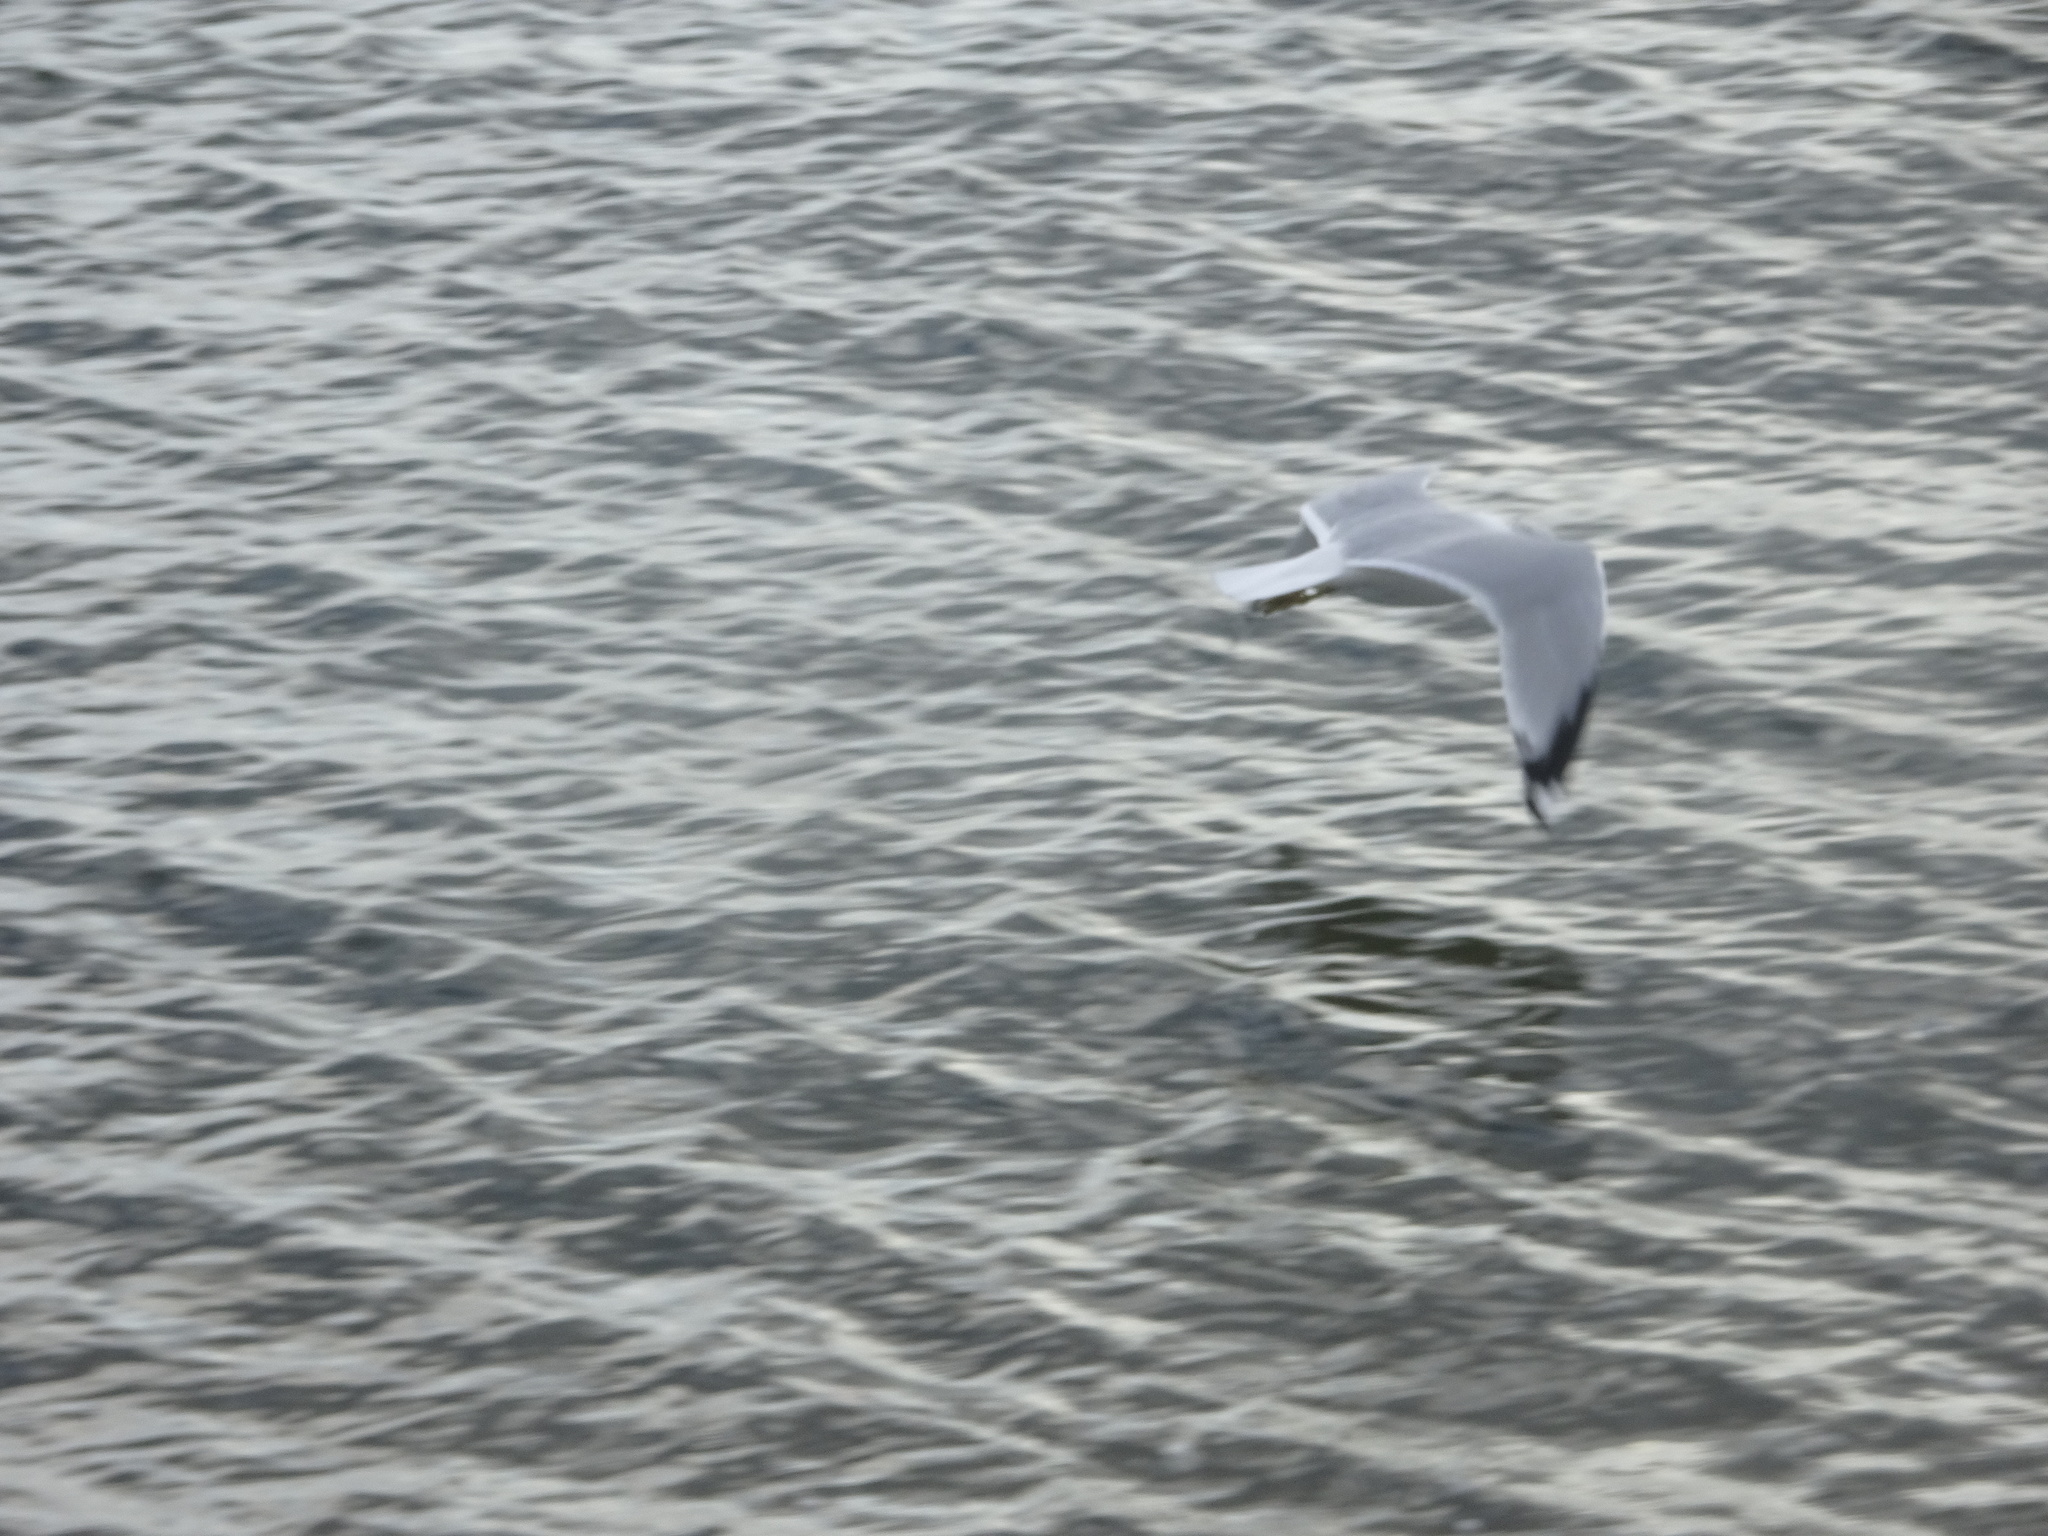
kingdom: Animalia
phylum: Chordata
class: Aves
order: Charadriiformes
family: Laridae
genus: Larus
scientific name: Larus argentatus
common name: Herring gull
